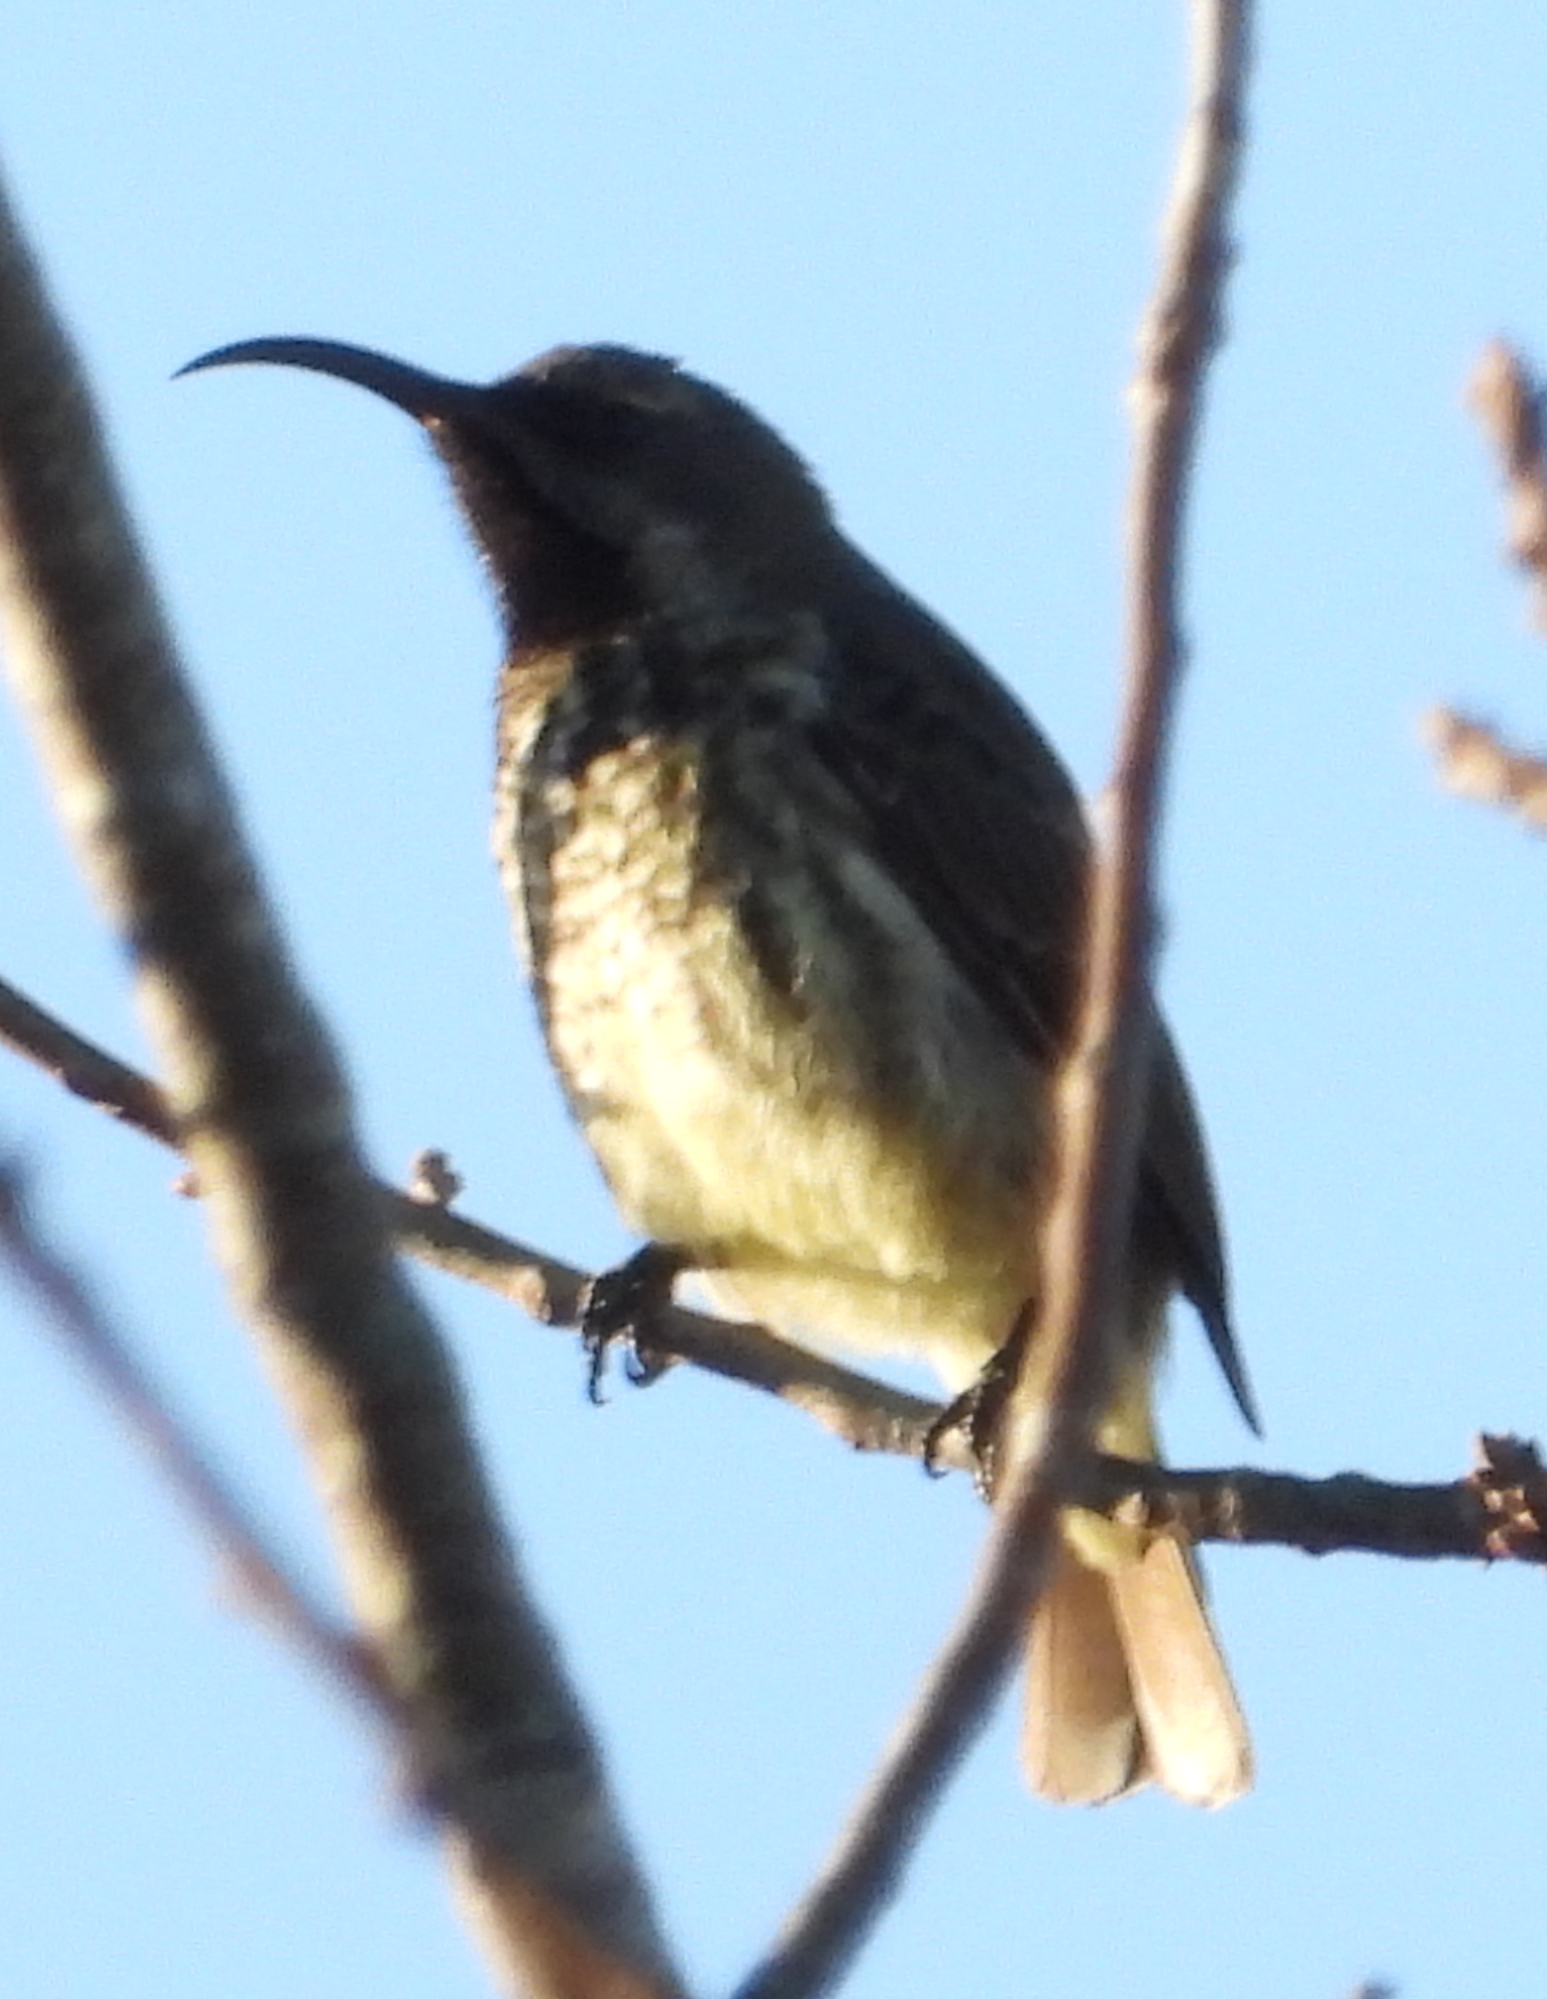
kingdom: Animalia
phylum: Chordata
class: Aves
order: Passeriformes
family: Nectariniidae
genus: Chalcomitra
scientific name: Chalcomitra amethystina
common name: Amethyst sunbird
